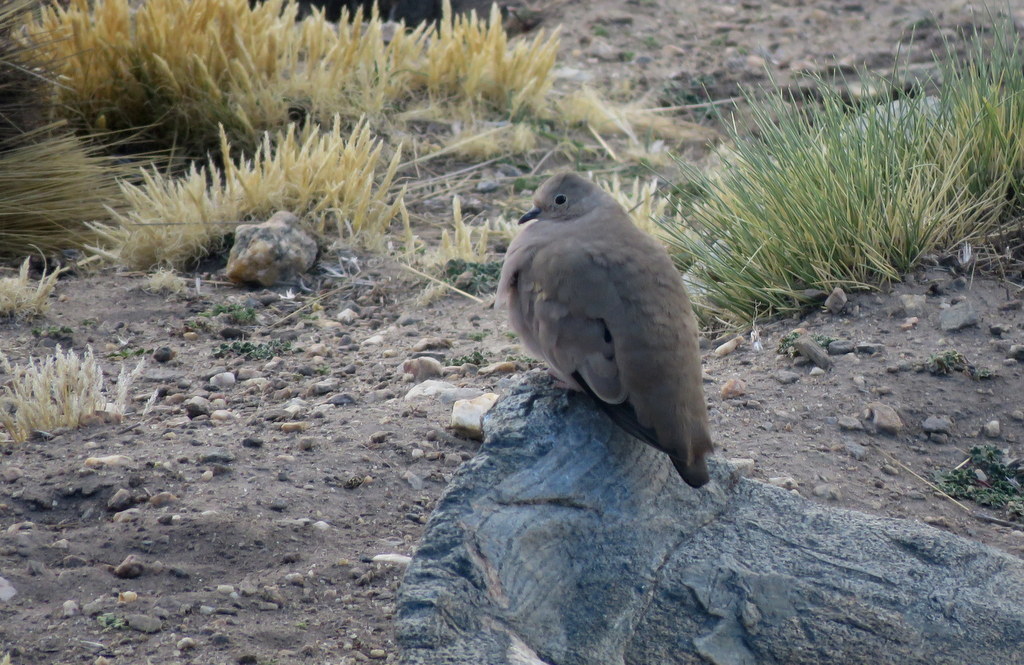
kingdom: Animalia
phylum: Chordata
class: Aves
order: Columbiformes
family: Columbidae
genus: Metriopelia
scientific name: Metriopelia aymara
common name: Golden-spotted ground dove
